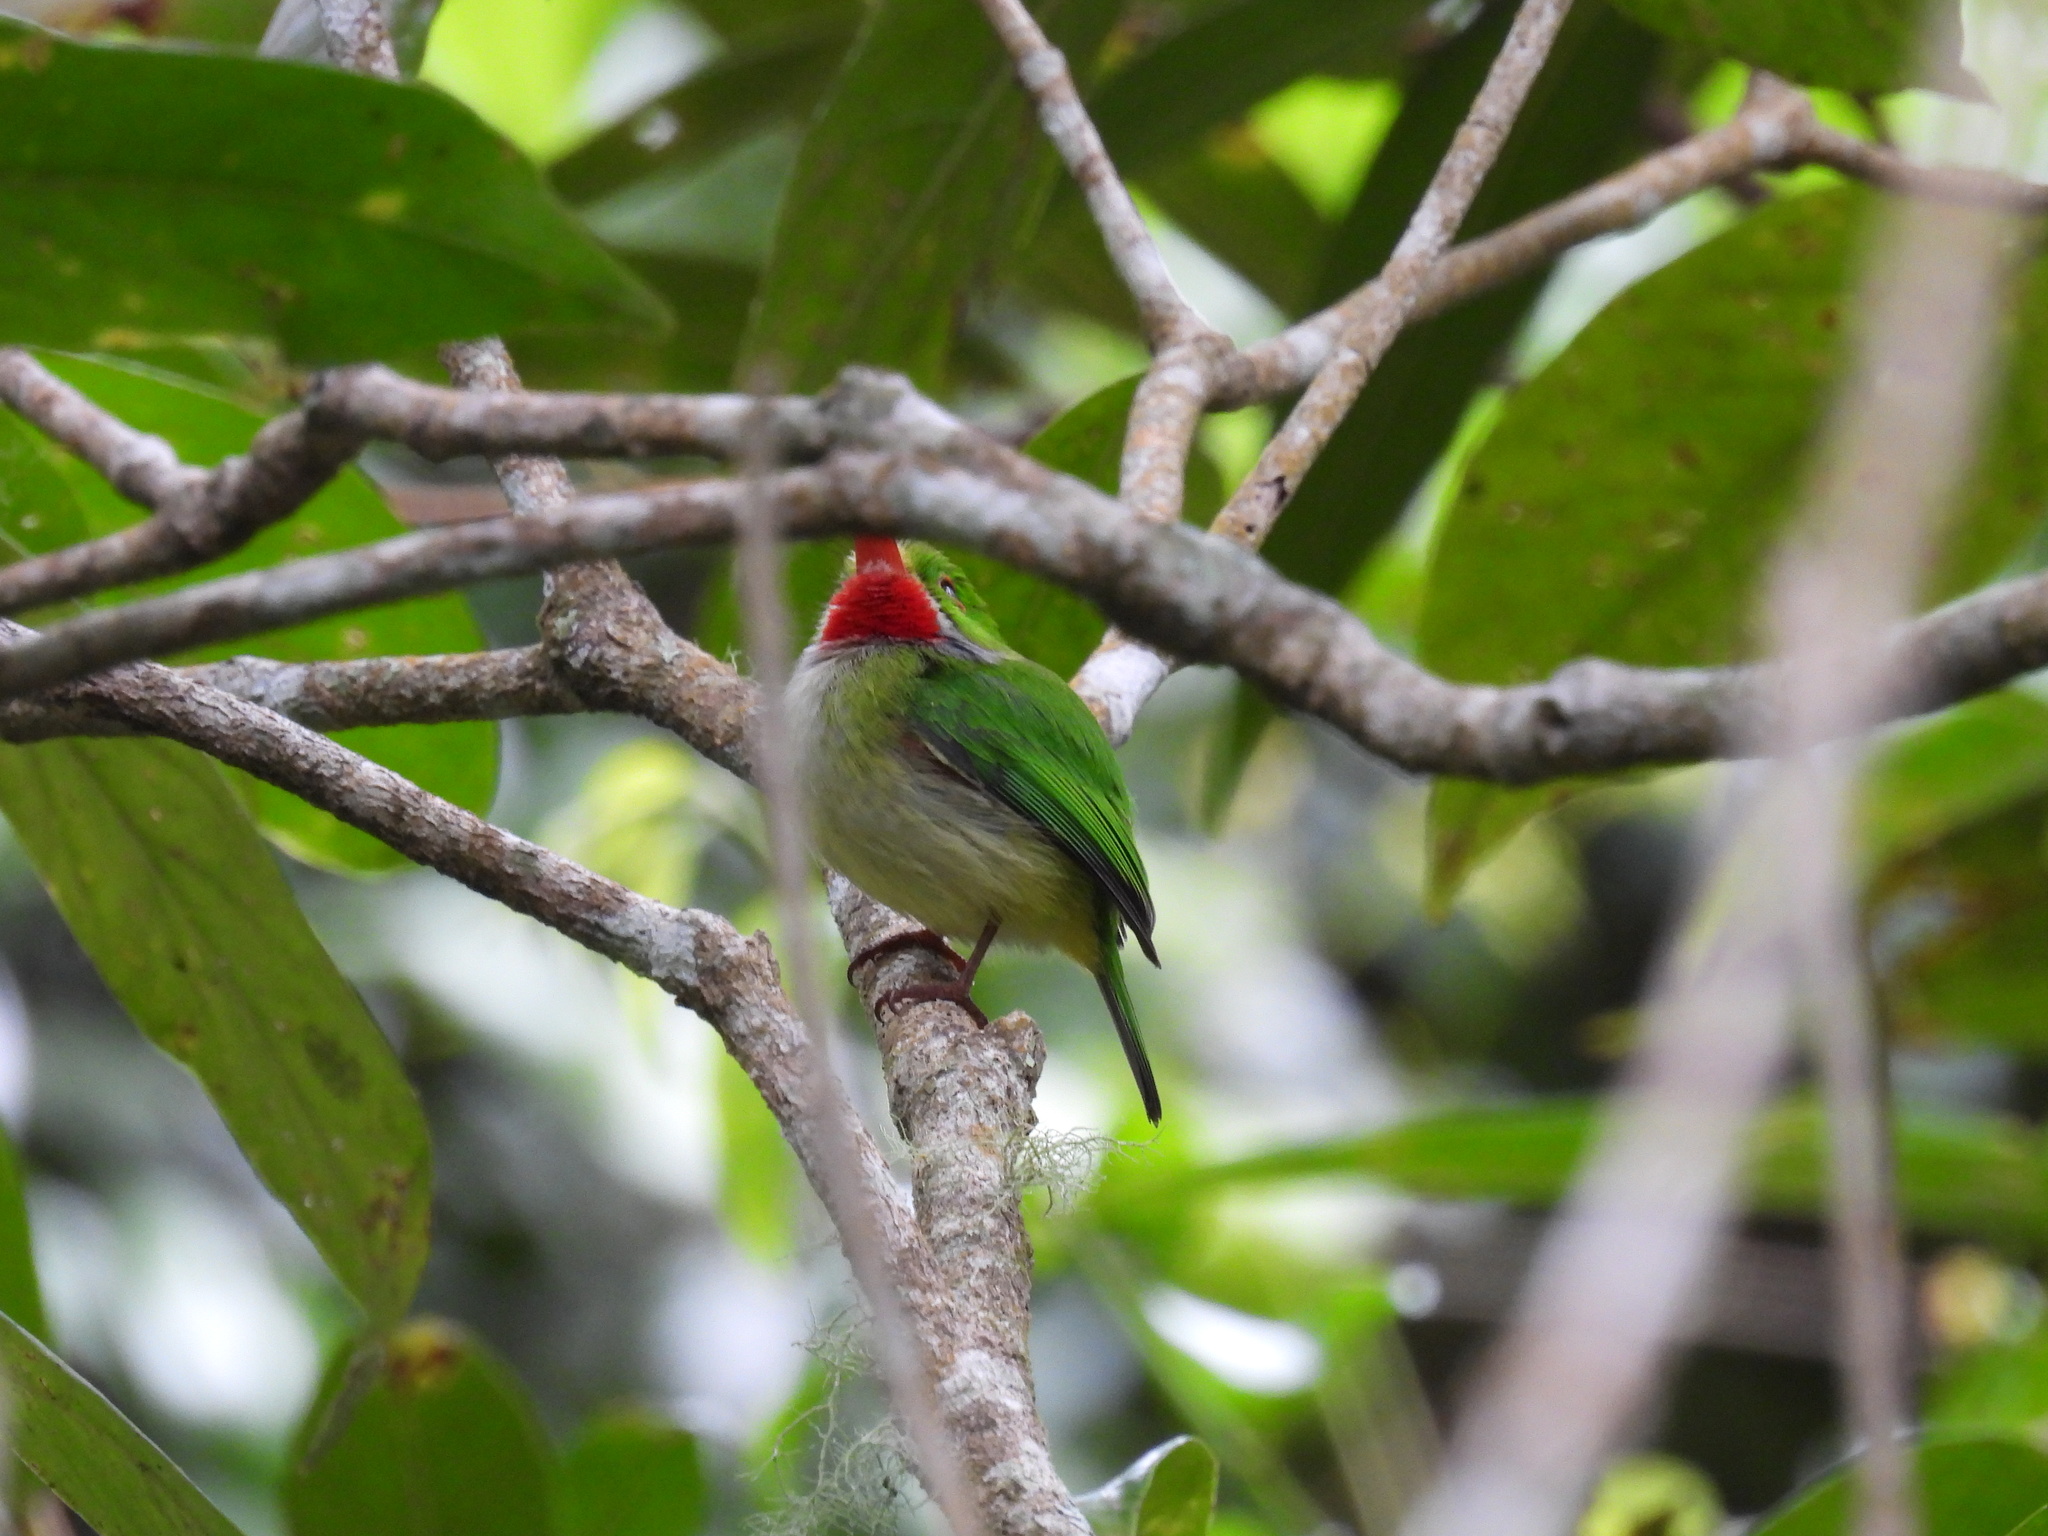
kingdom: Animalia
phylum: Chordata
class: Aves
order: Coraciiformes
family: Todidae
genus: Todus
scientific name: Todus todus
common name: Jamaican tody
